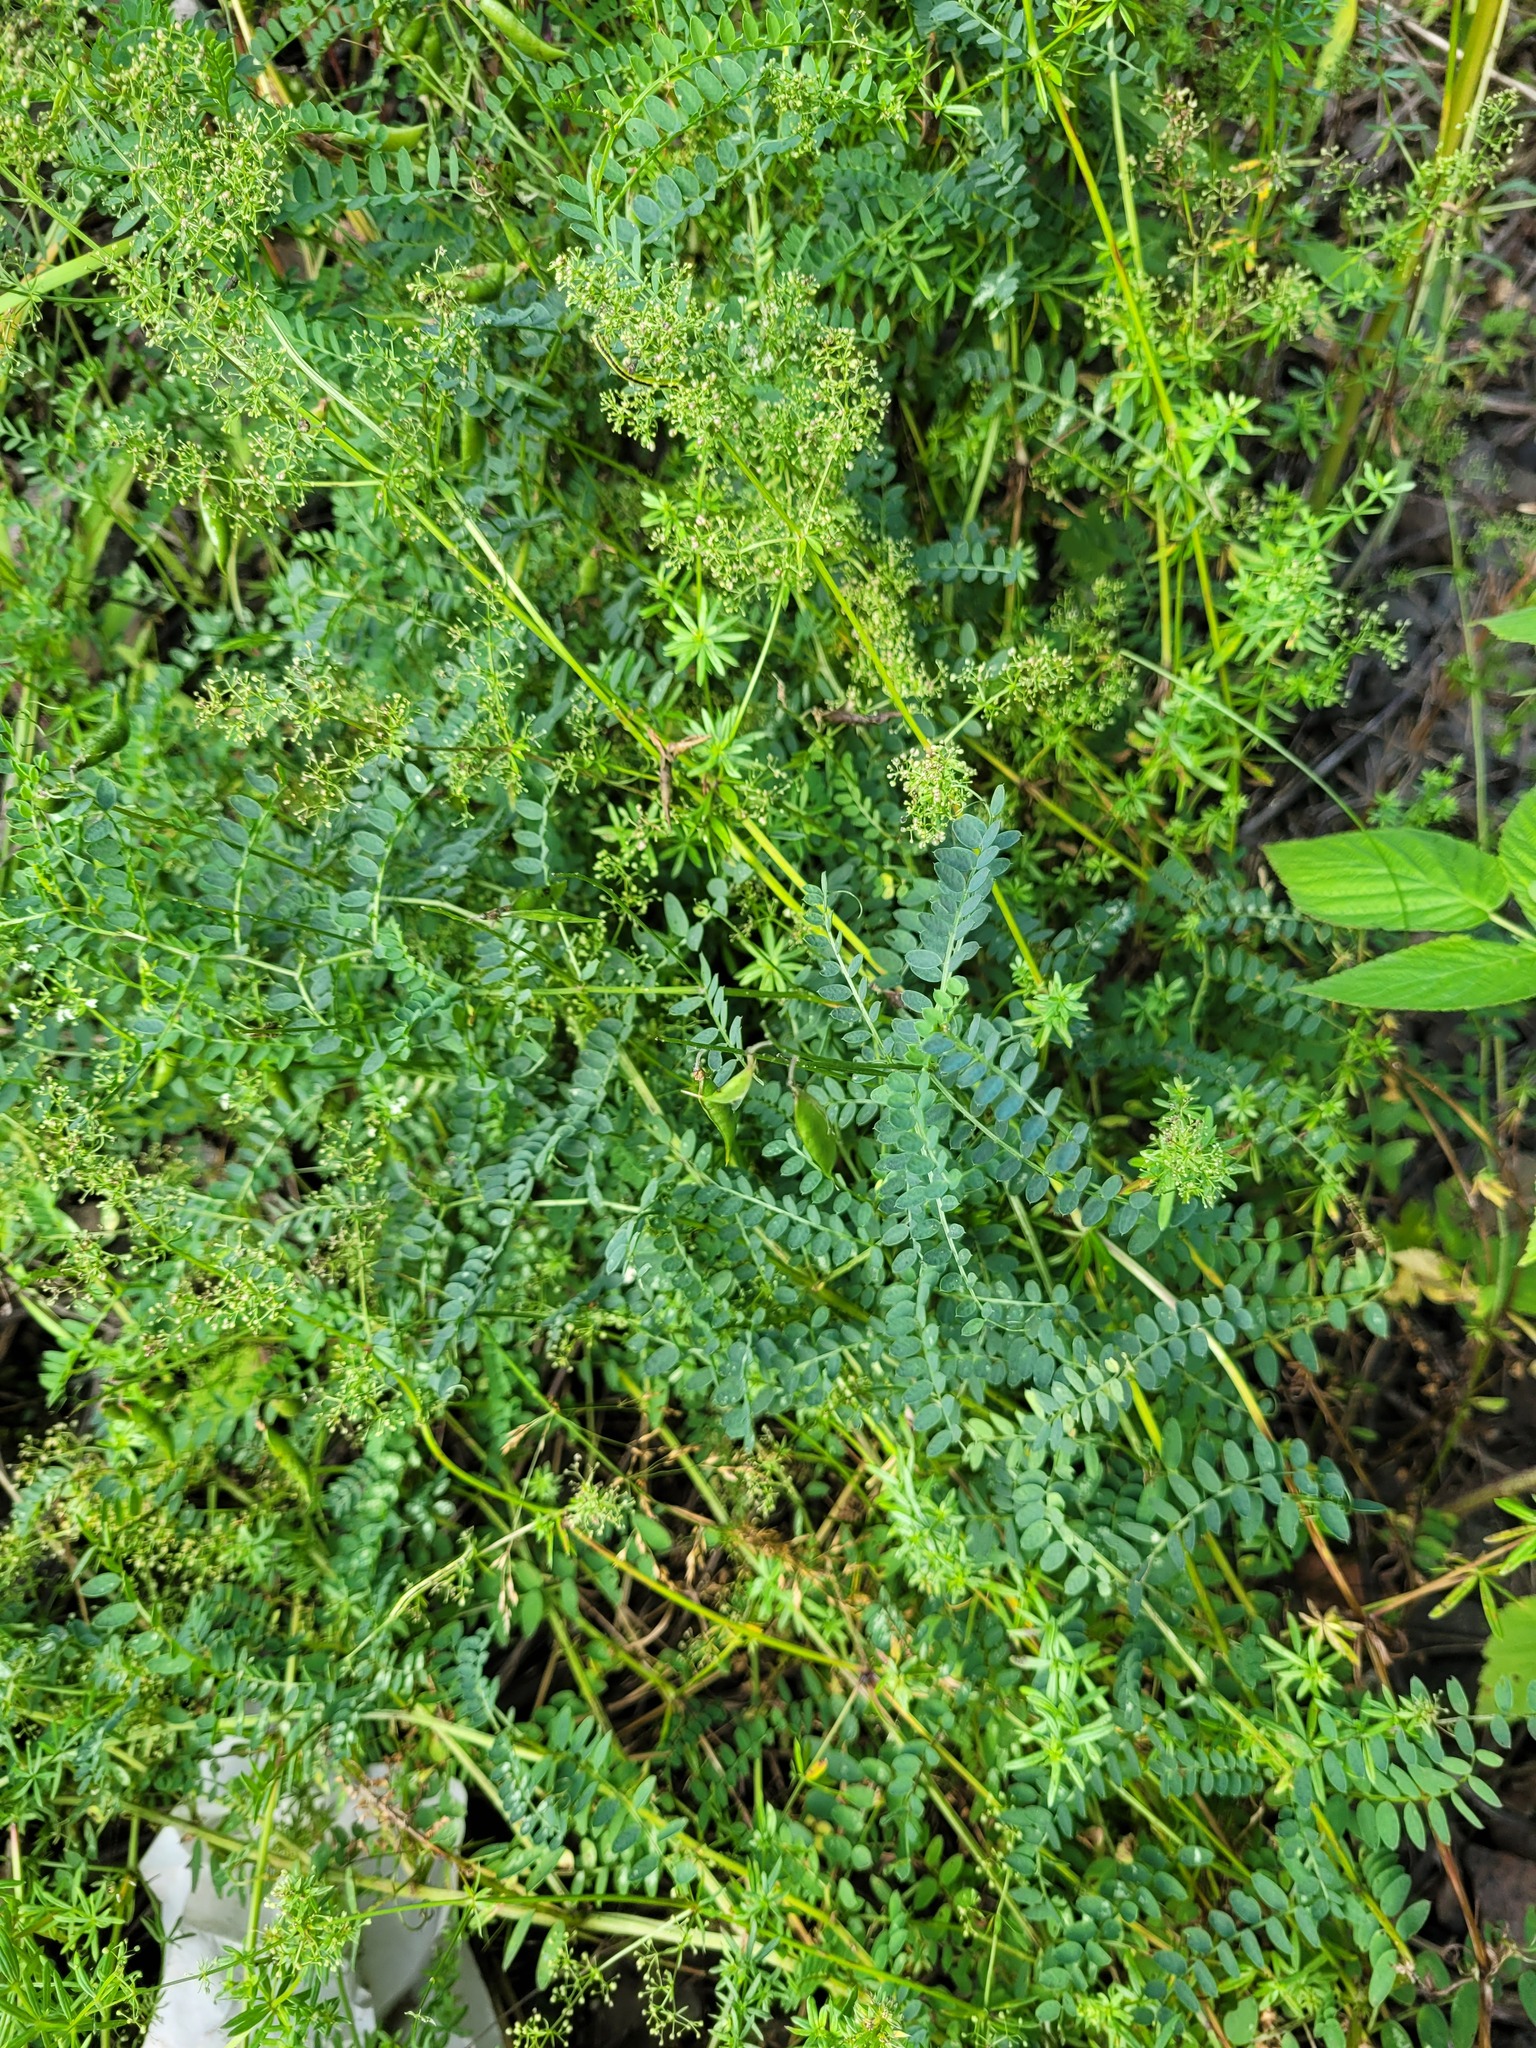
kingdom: Plantae
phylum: Tracheophyta
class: Magnoliopsida
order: Fabales
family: Fabaceae
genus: Vicia
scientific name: Vicia sylvatica
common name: Wood vetch
